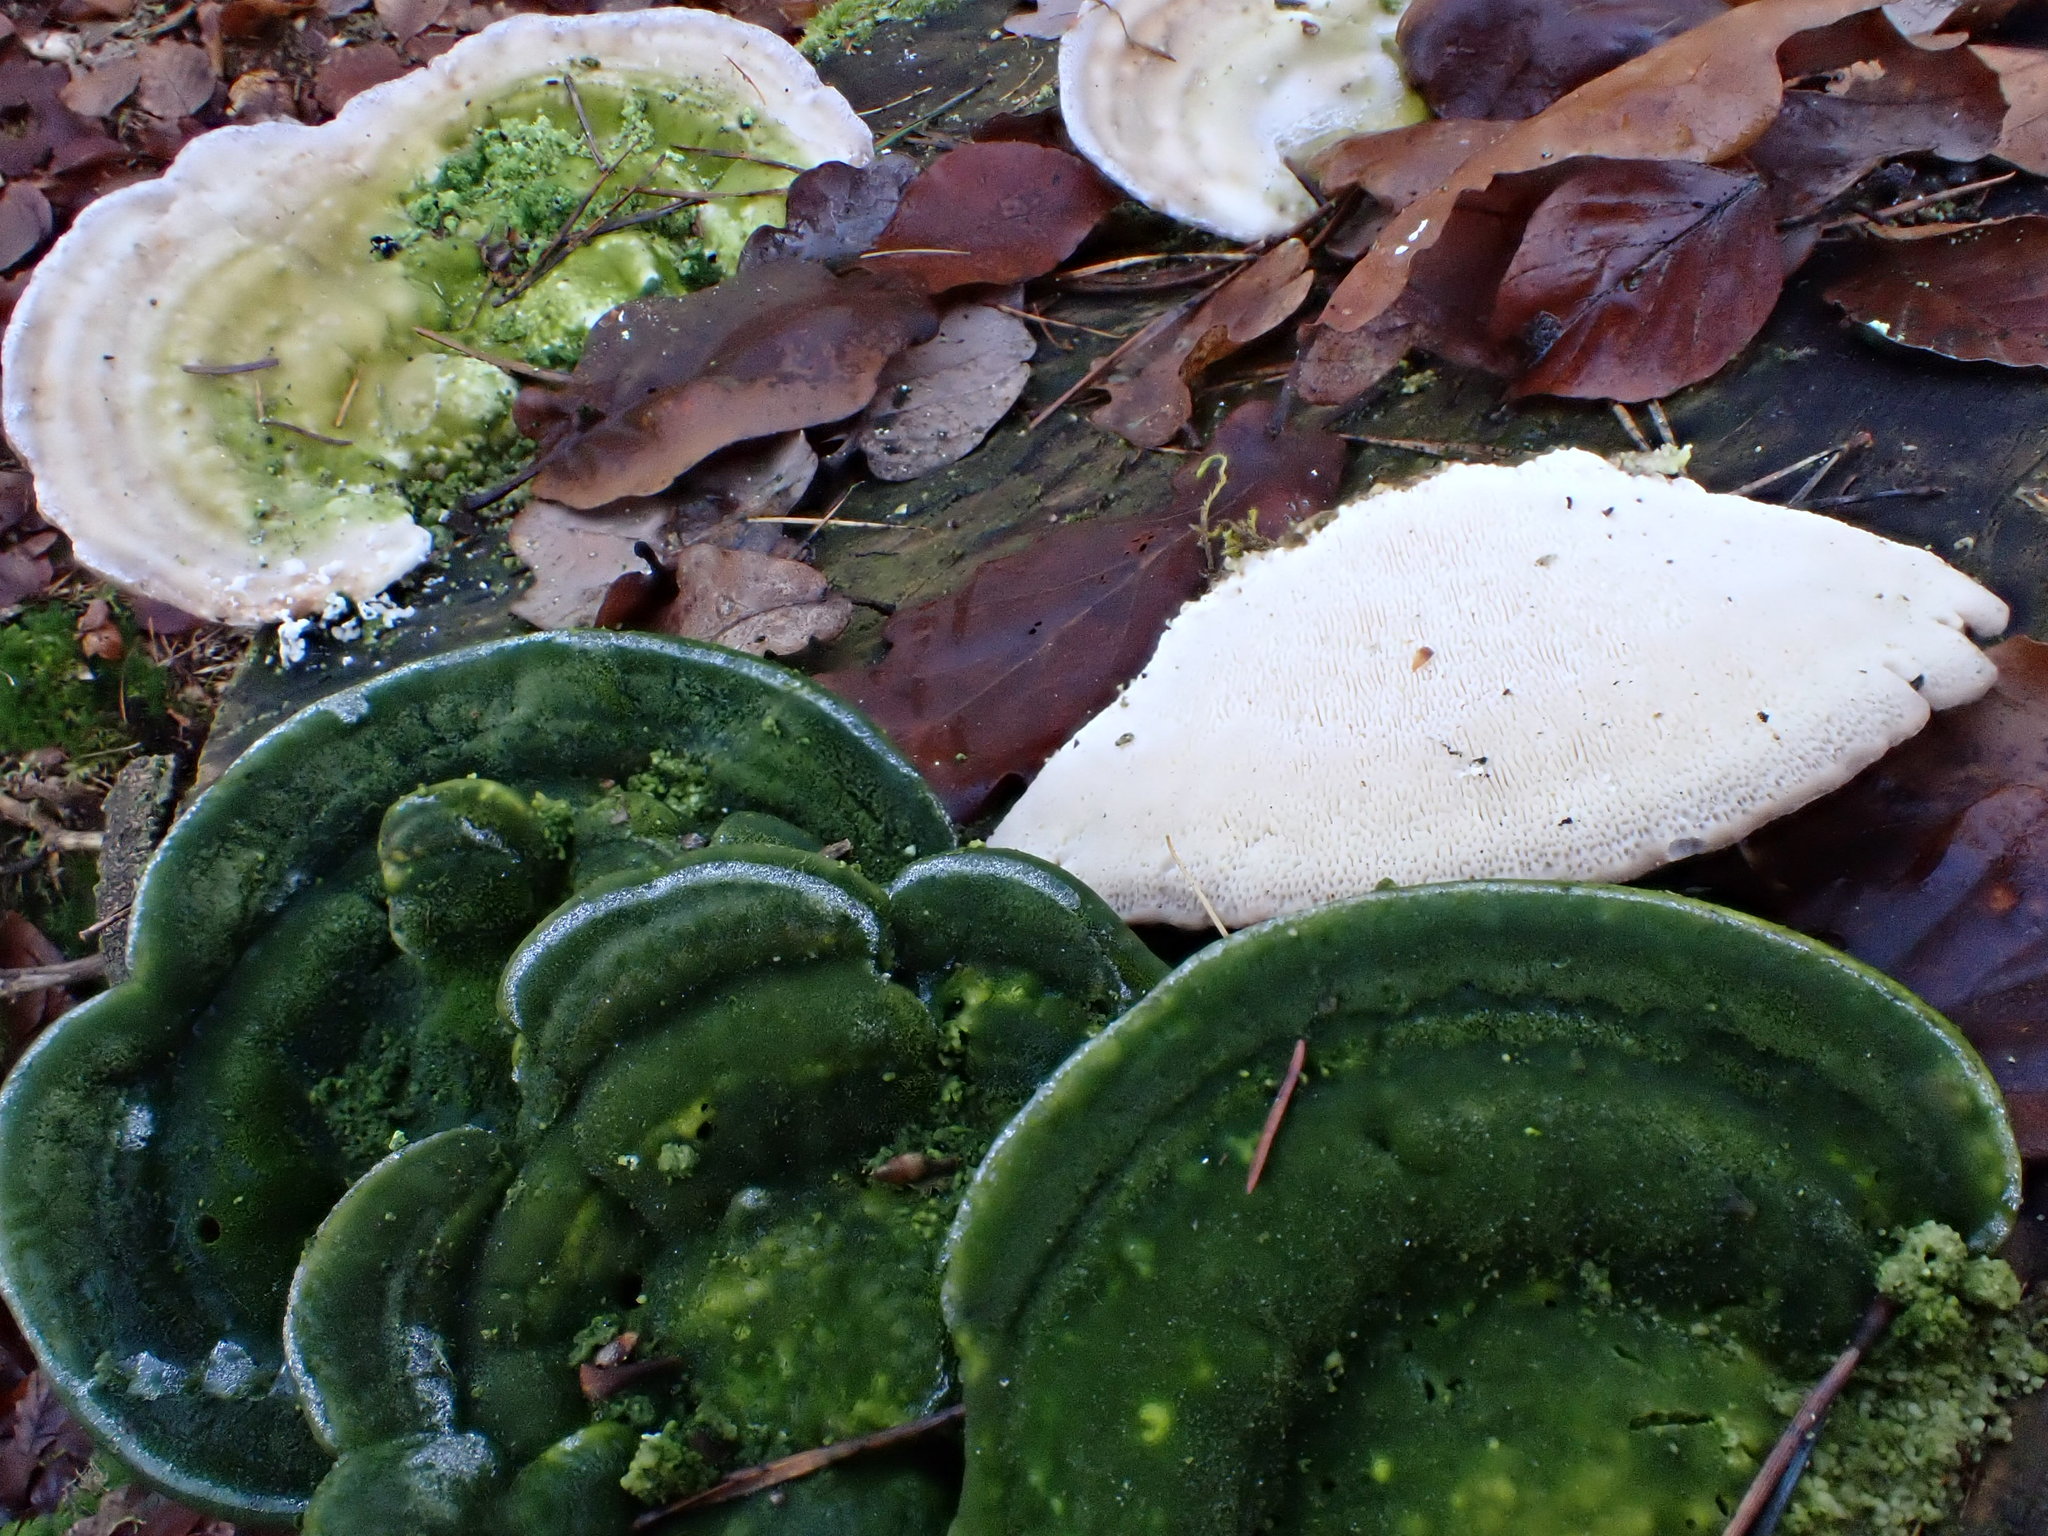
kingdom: Fungi
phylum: Basidiomycota
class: Agaricomycetes
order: Polyporales
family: Polyporaceae
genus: Trametes
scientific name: Trametes gibbosa
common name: Lumpy bracket
